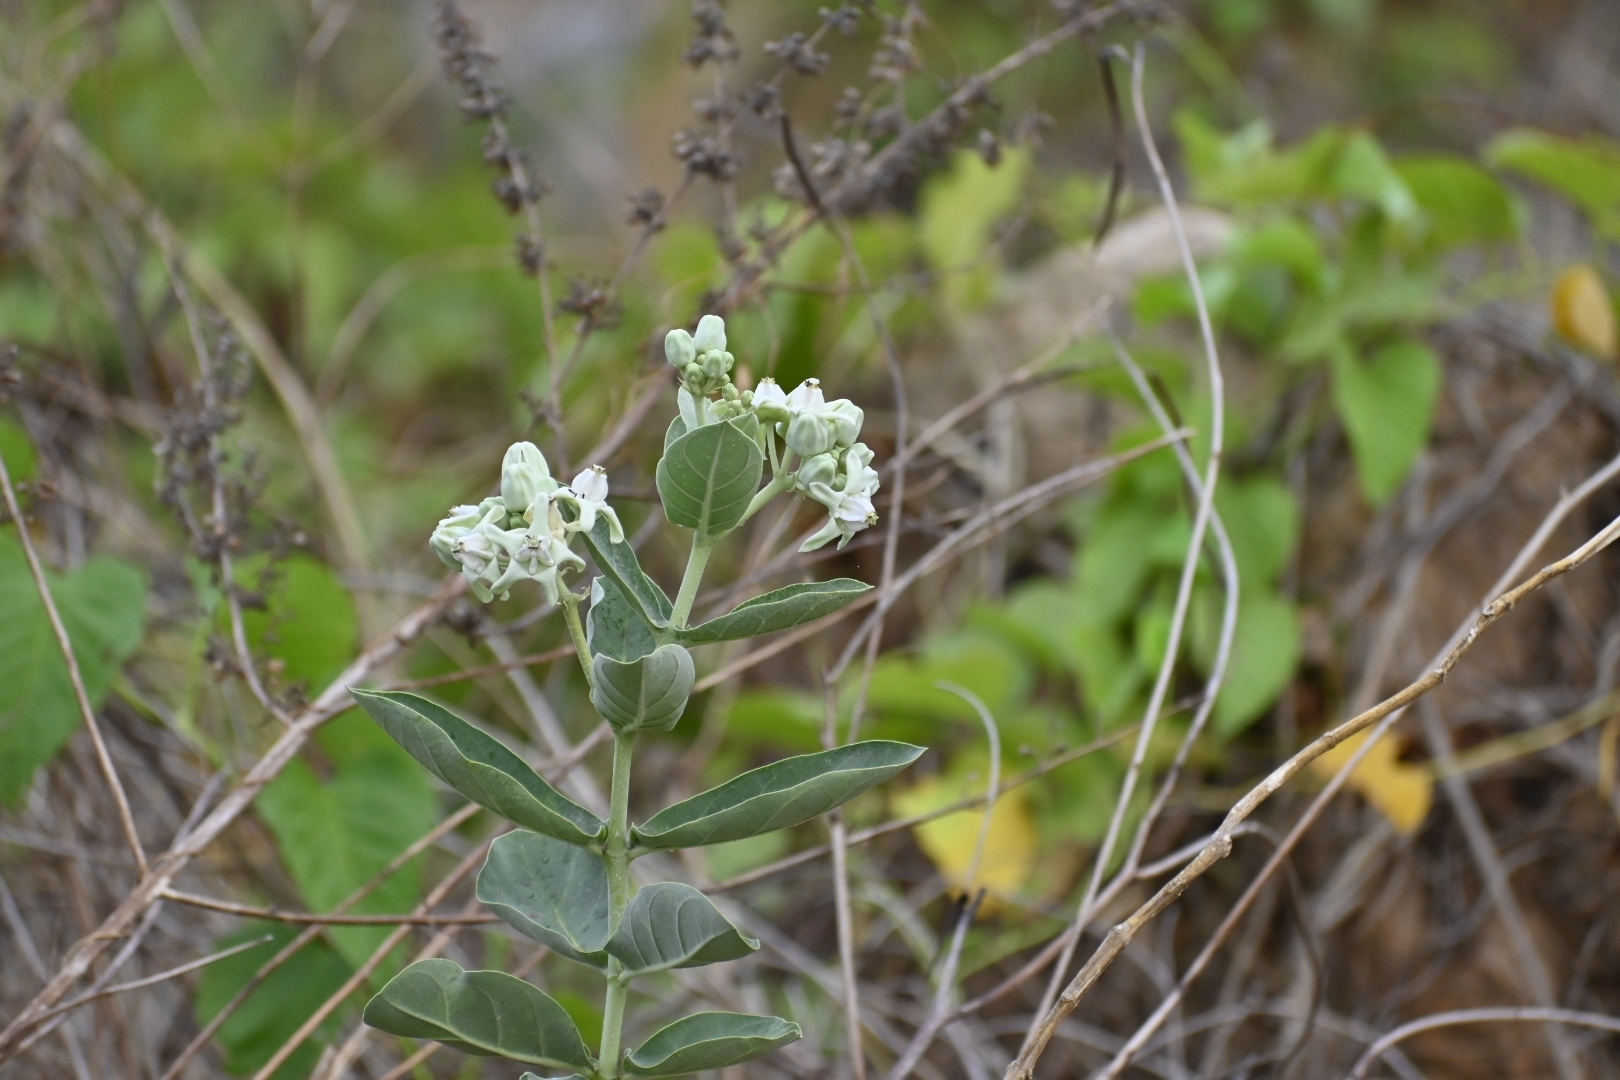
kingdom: Plantae
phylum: Tracheophyta
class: Magnoliopsida
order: Gentianales
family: Apocynaceae
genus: Calotropis
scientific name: Calotropis gigantea
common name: Crown flower
